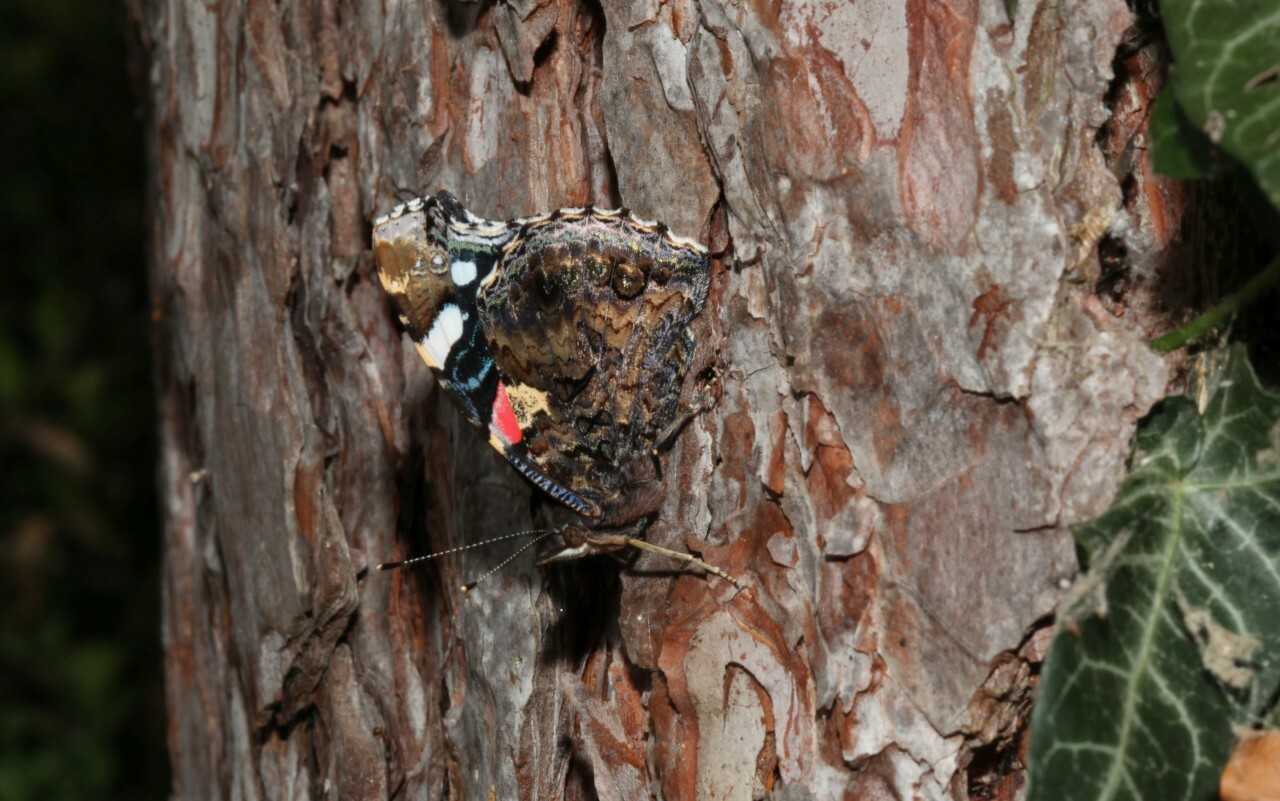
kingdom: Animalia
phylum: Arthropoda
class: Insecta
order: Lepidoptera
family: Nymphalidae
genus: Vanessa
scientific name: Vanessa atalanta
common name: Red admiral
